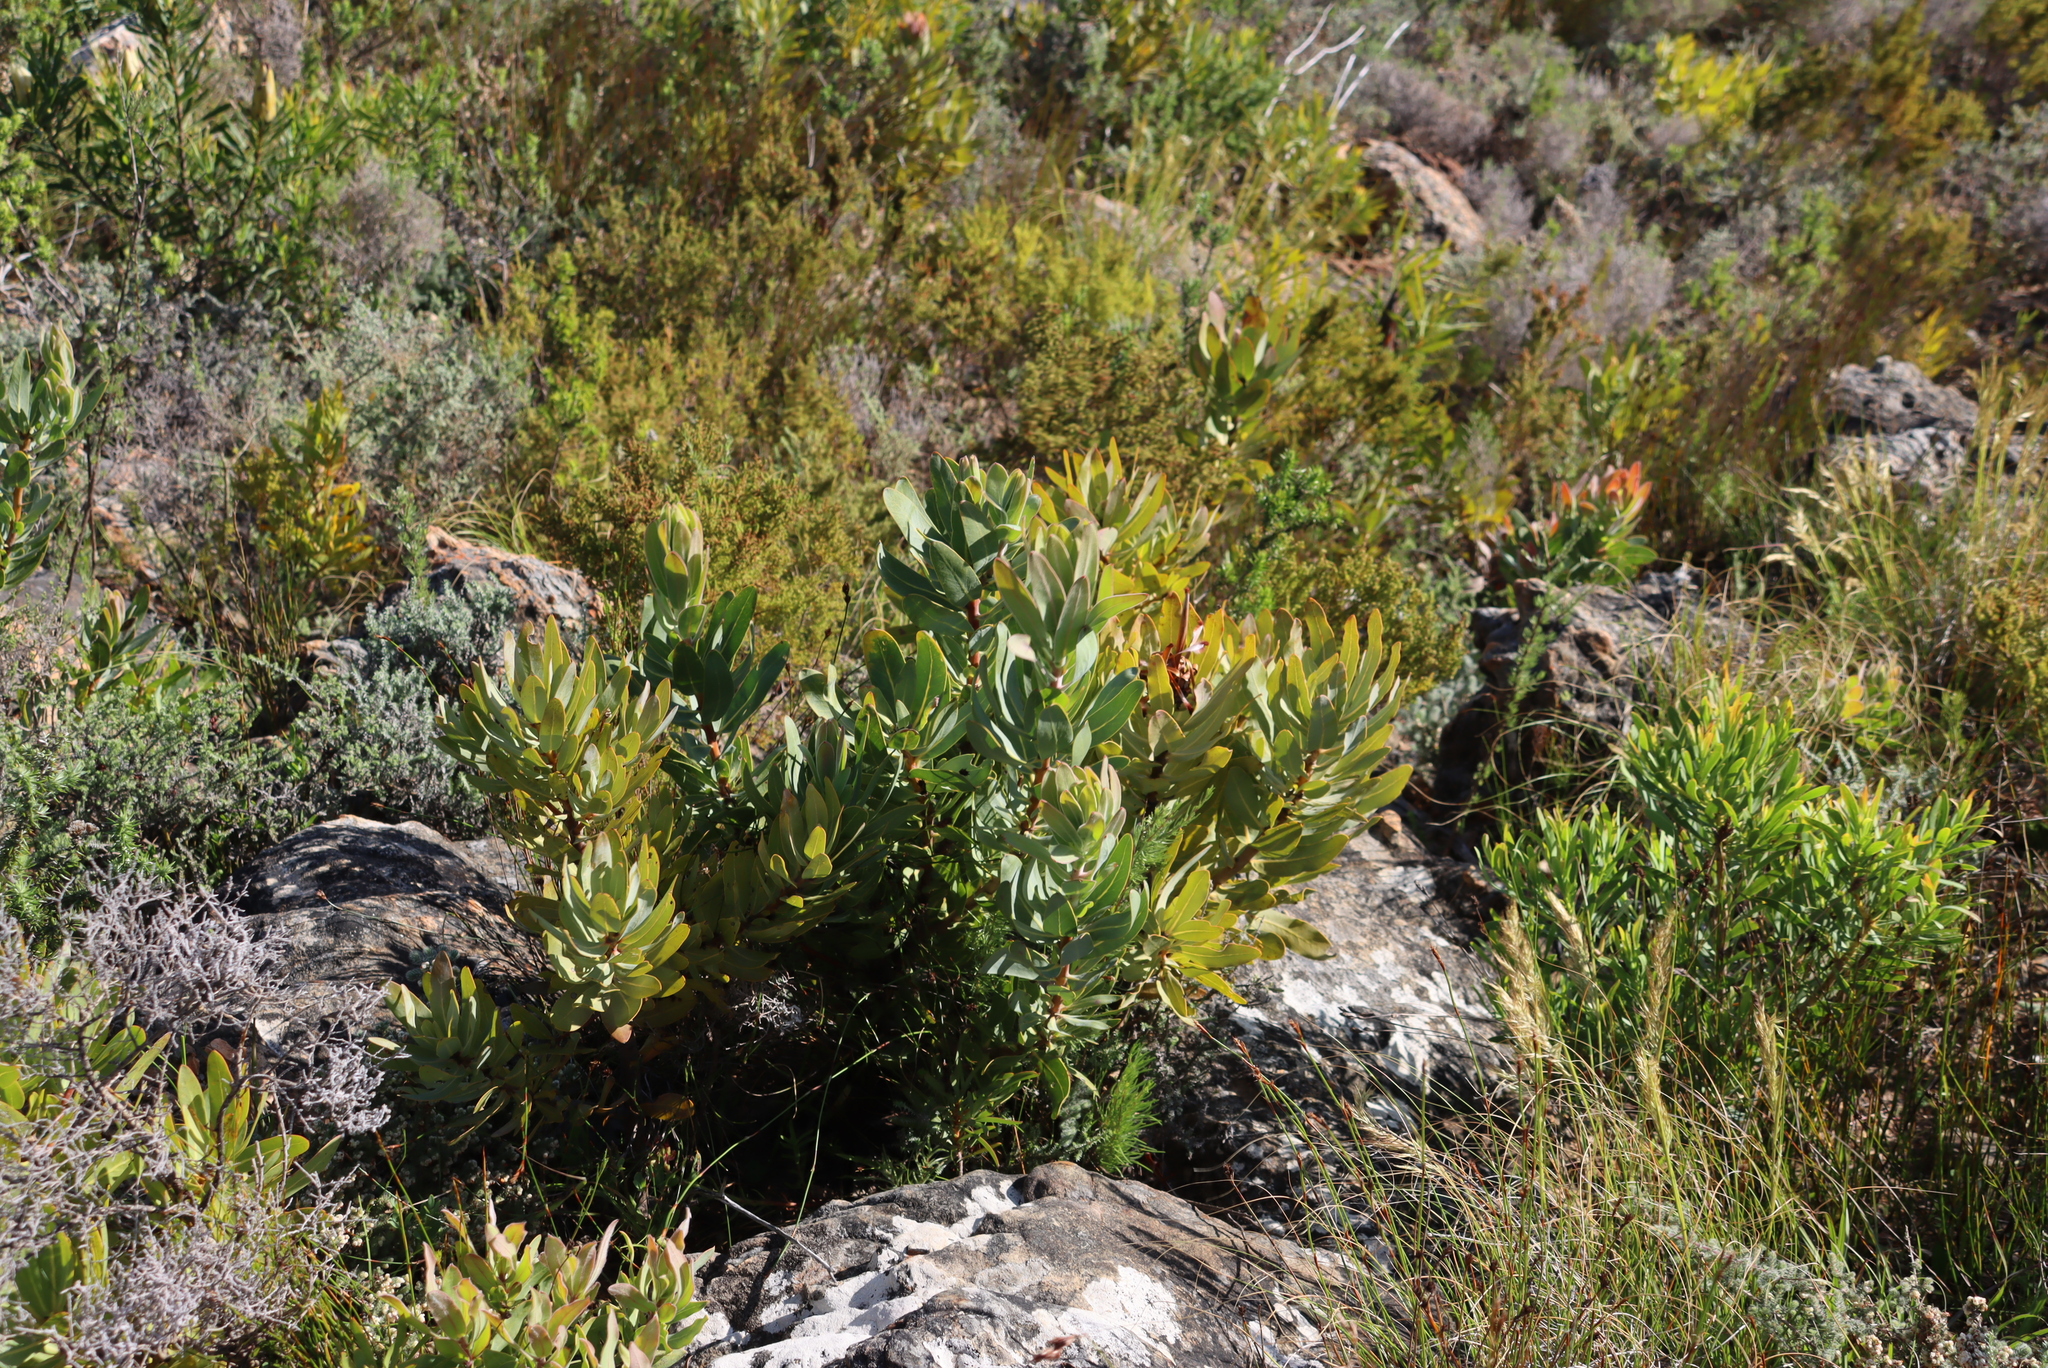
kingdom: Plantae
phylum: Tracheophyta
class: Magnoliopsida
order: Proteales
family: Proteaceae
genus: Protea
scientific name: Protea laurifolia
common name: Grey-leaf sugarbsh
